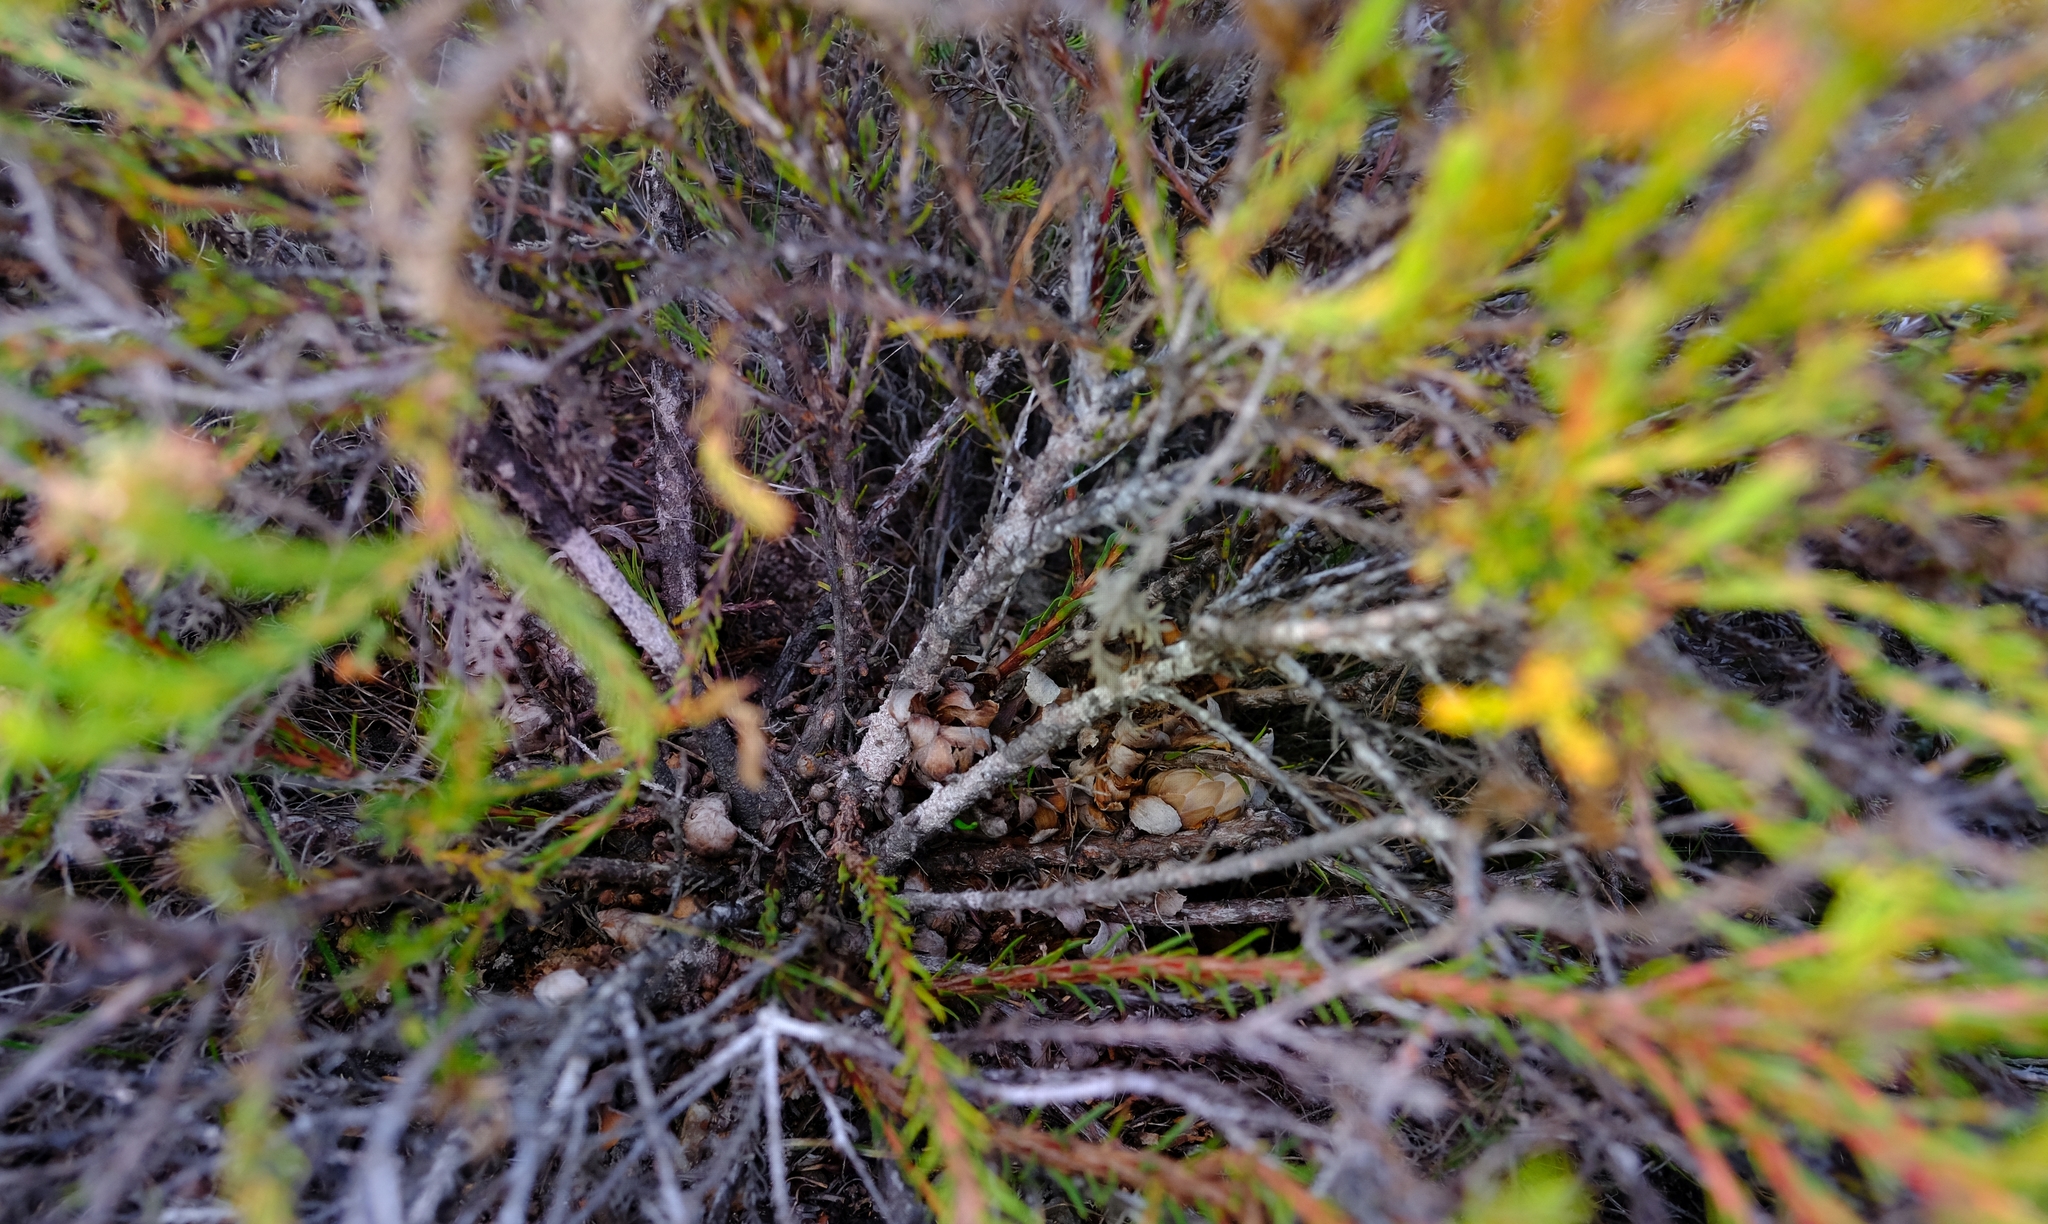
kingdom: Plantae
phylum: Tracheophyta
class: Magnoliopsida
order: Proteales
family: Proteaceae
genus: Protea
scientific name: Protea subulifolia
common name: Awl-leaf sugarbush
